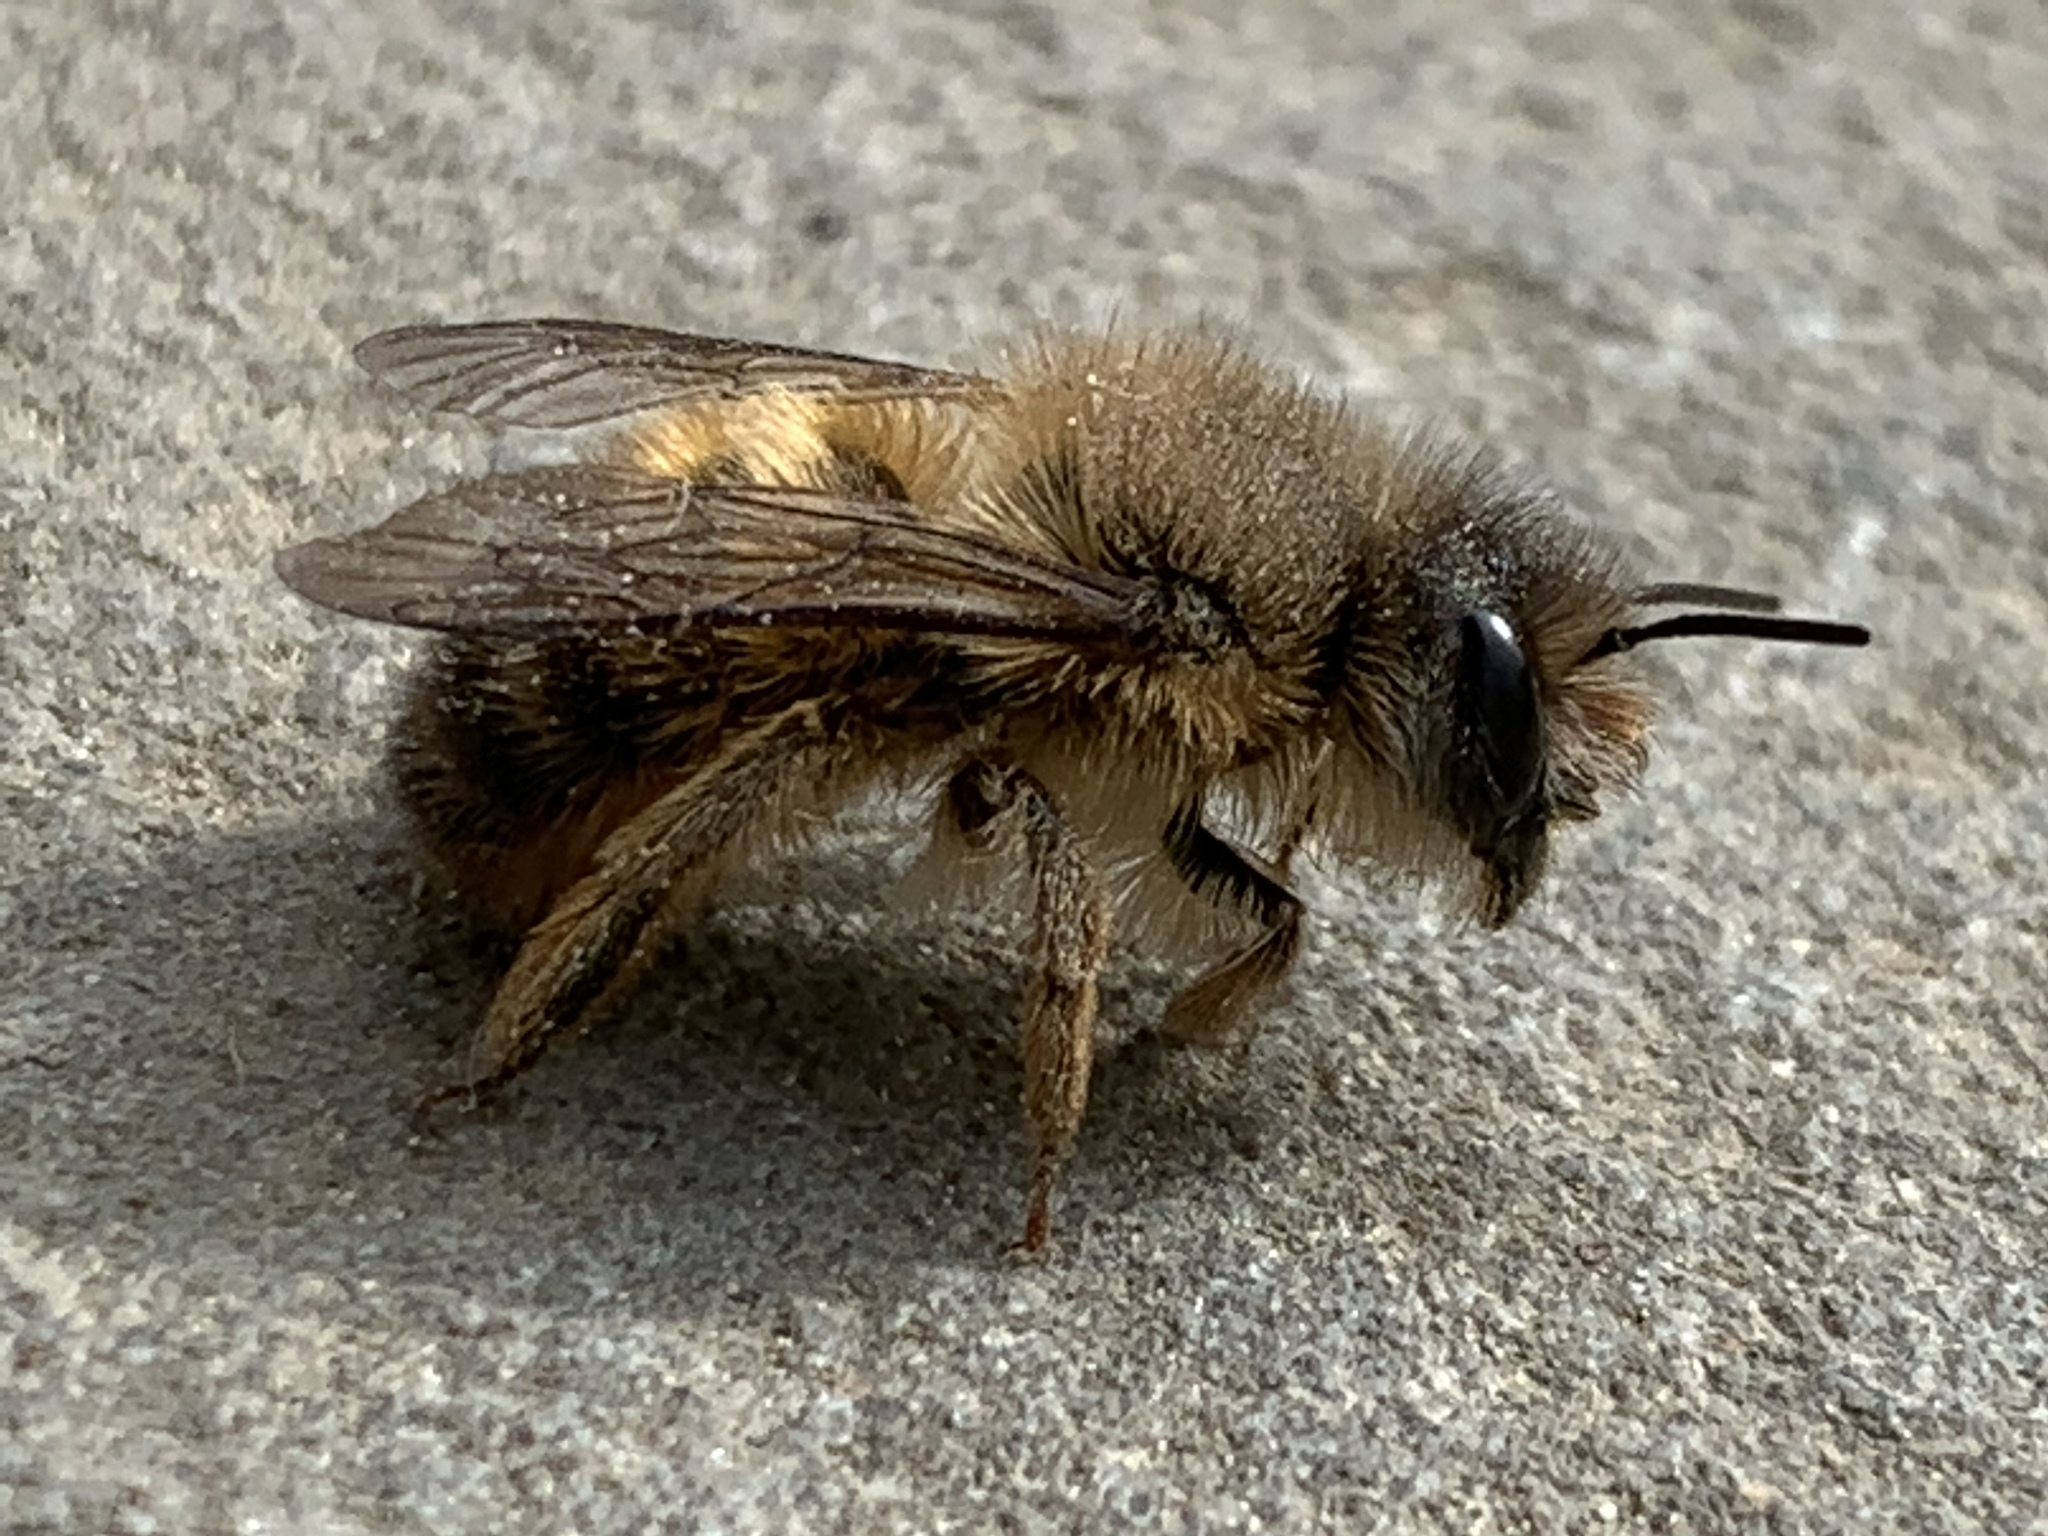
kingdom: Animalia
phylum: Arthropoda
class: Insecta
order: Hymenoptera
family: Megachilidae
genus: Osmia
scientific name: Osmia taurus
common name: Taurus mason bee
